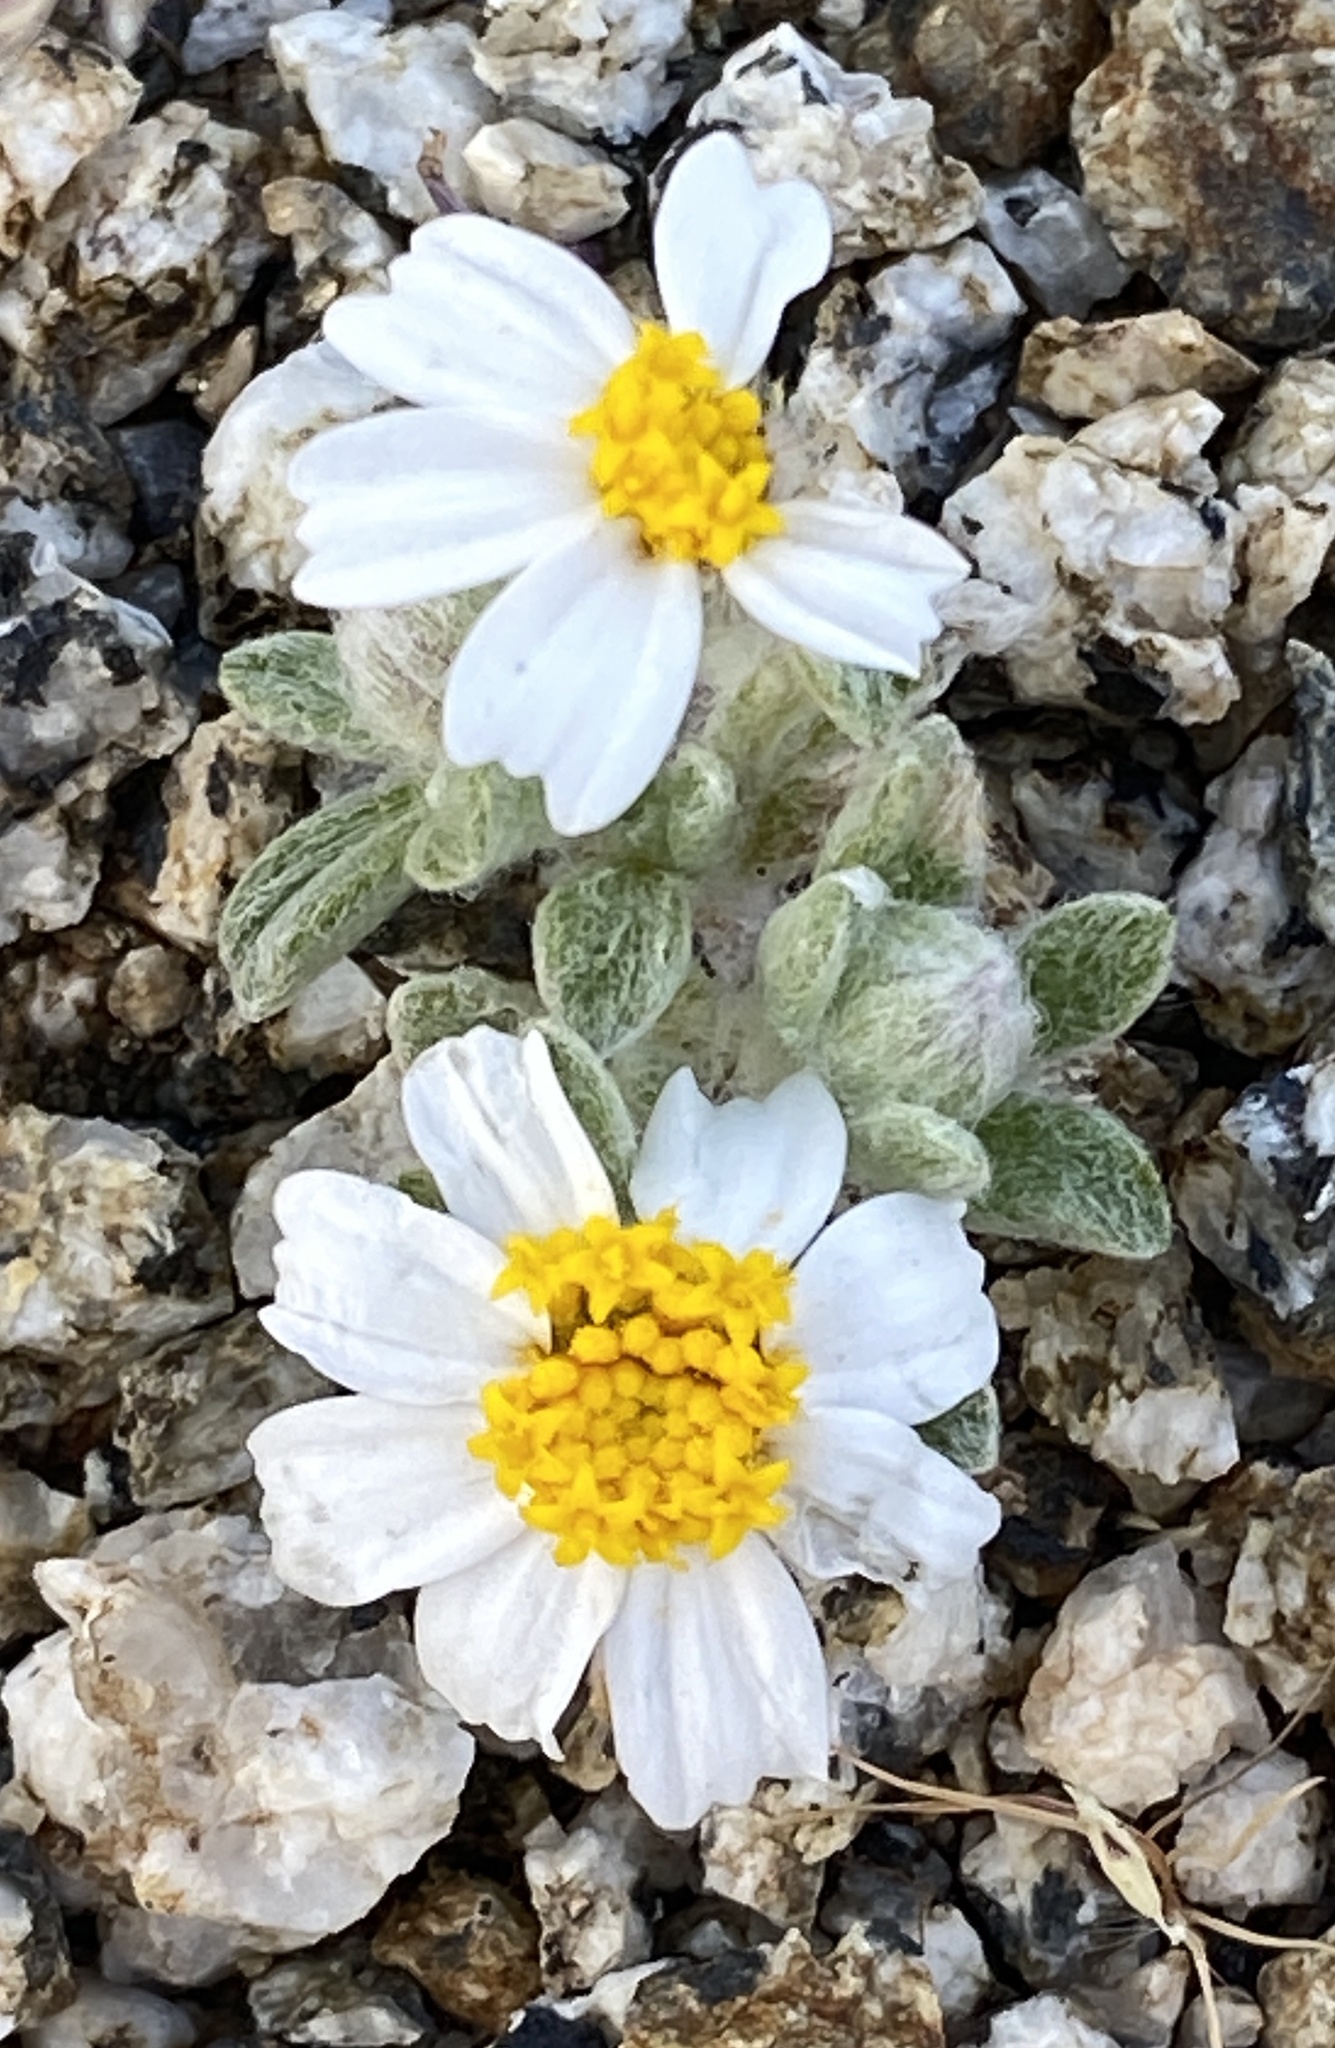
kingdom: Plantae
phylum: Tracheophyta
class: Magnoliopsida
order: Asterales
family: Asteraceae
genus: Eriophyllum
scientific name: Eriophyllum wallacei
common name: Wallace's woolly daisy
